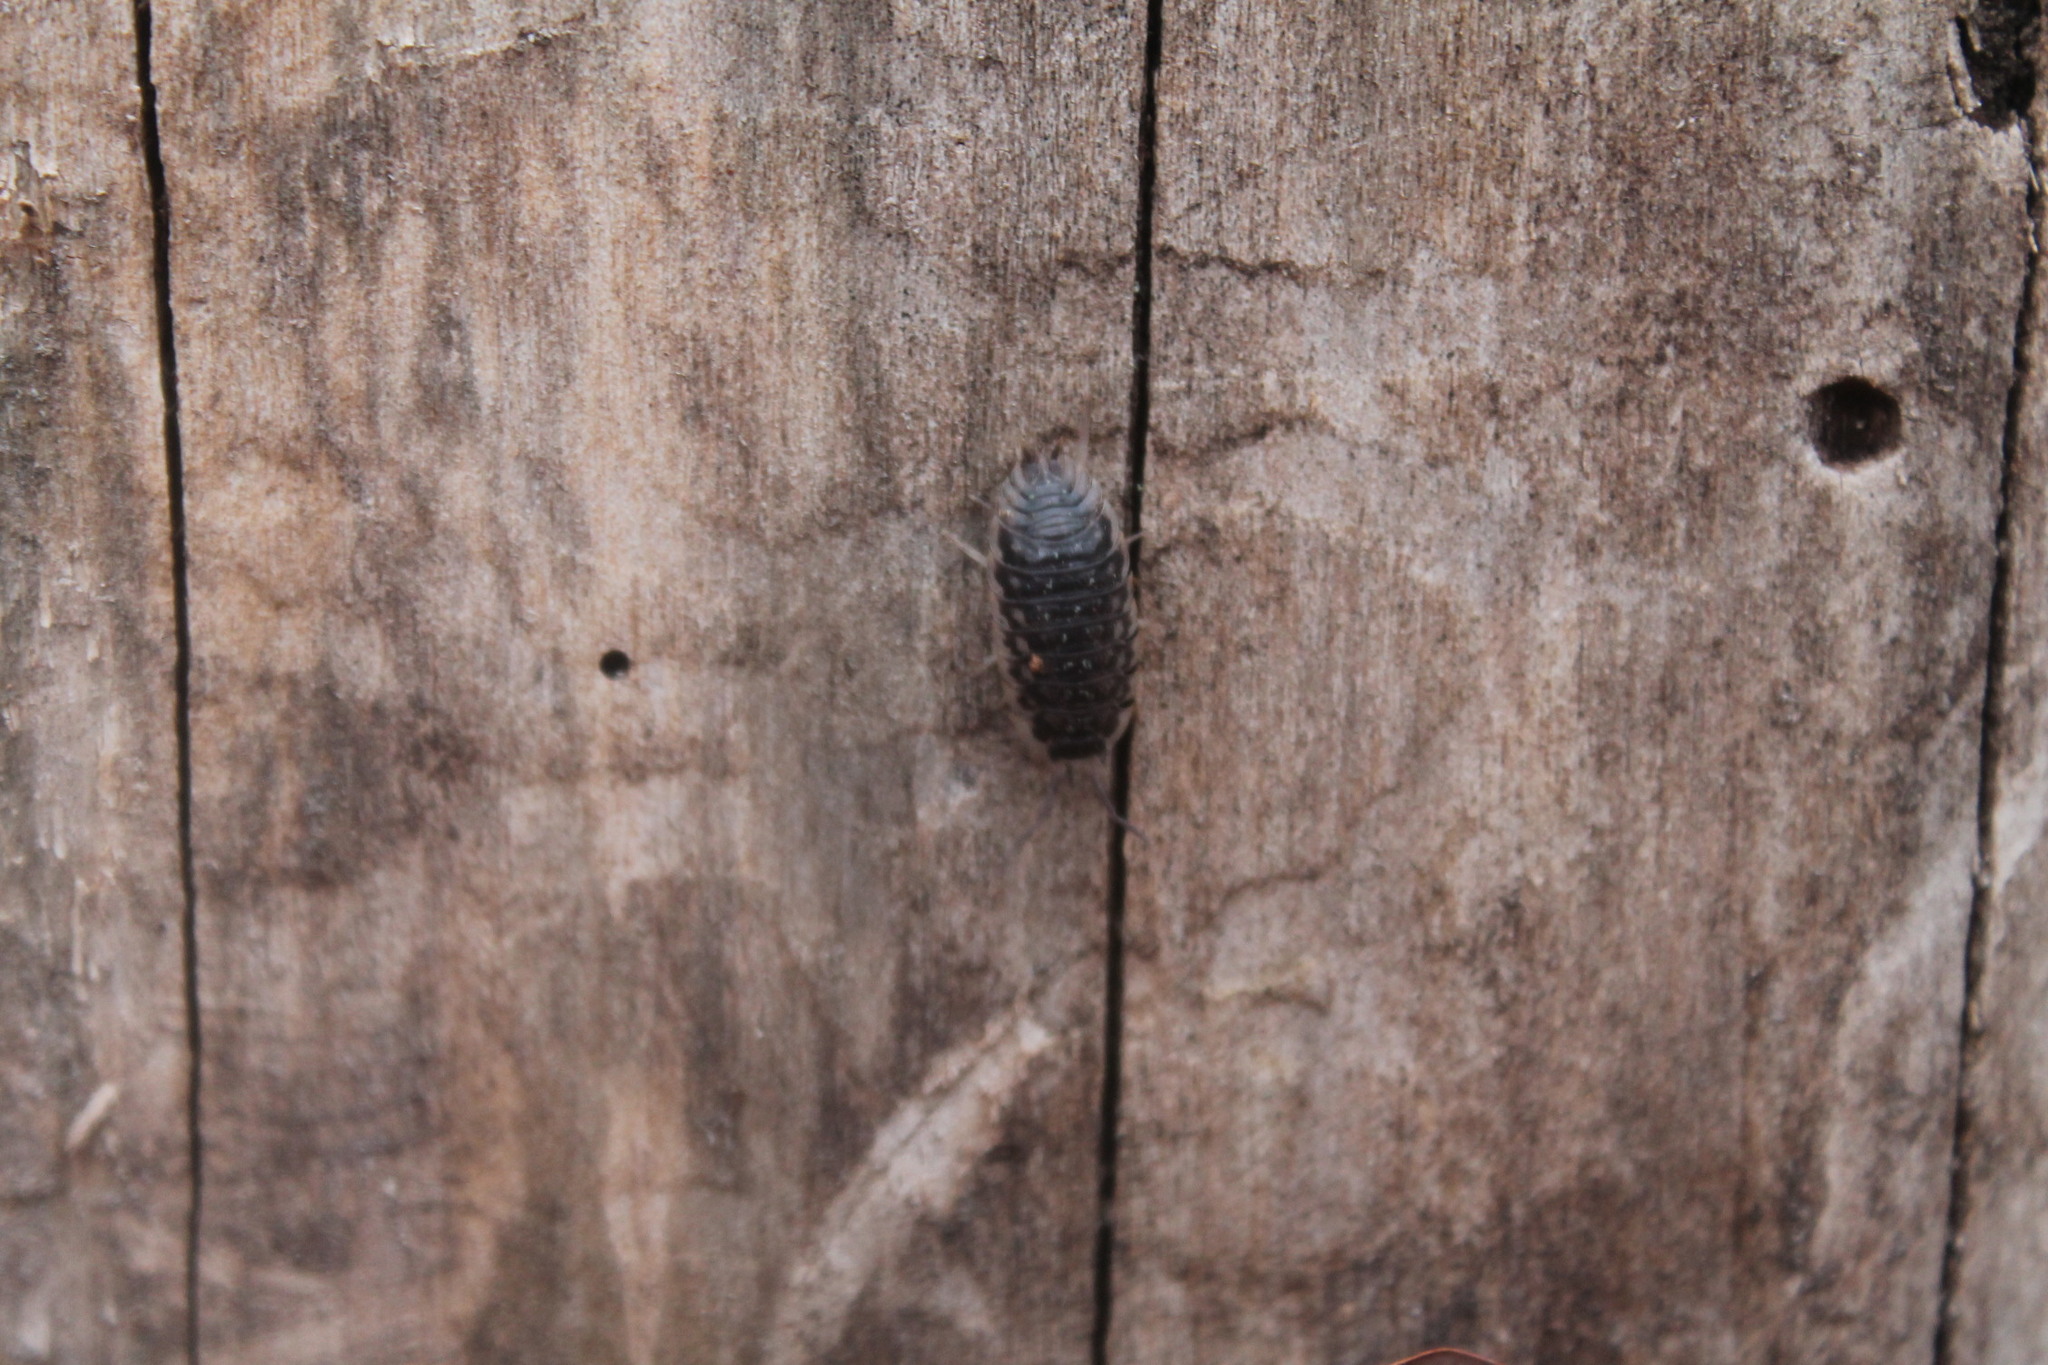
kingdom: Animalia
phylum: Arthropoda
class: Malacostraca
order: Isopoda
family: Oniscidae
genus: Oniscus
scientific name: Oniscus asellus
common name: Common shiny woodlouse
